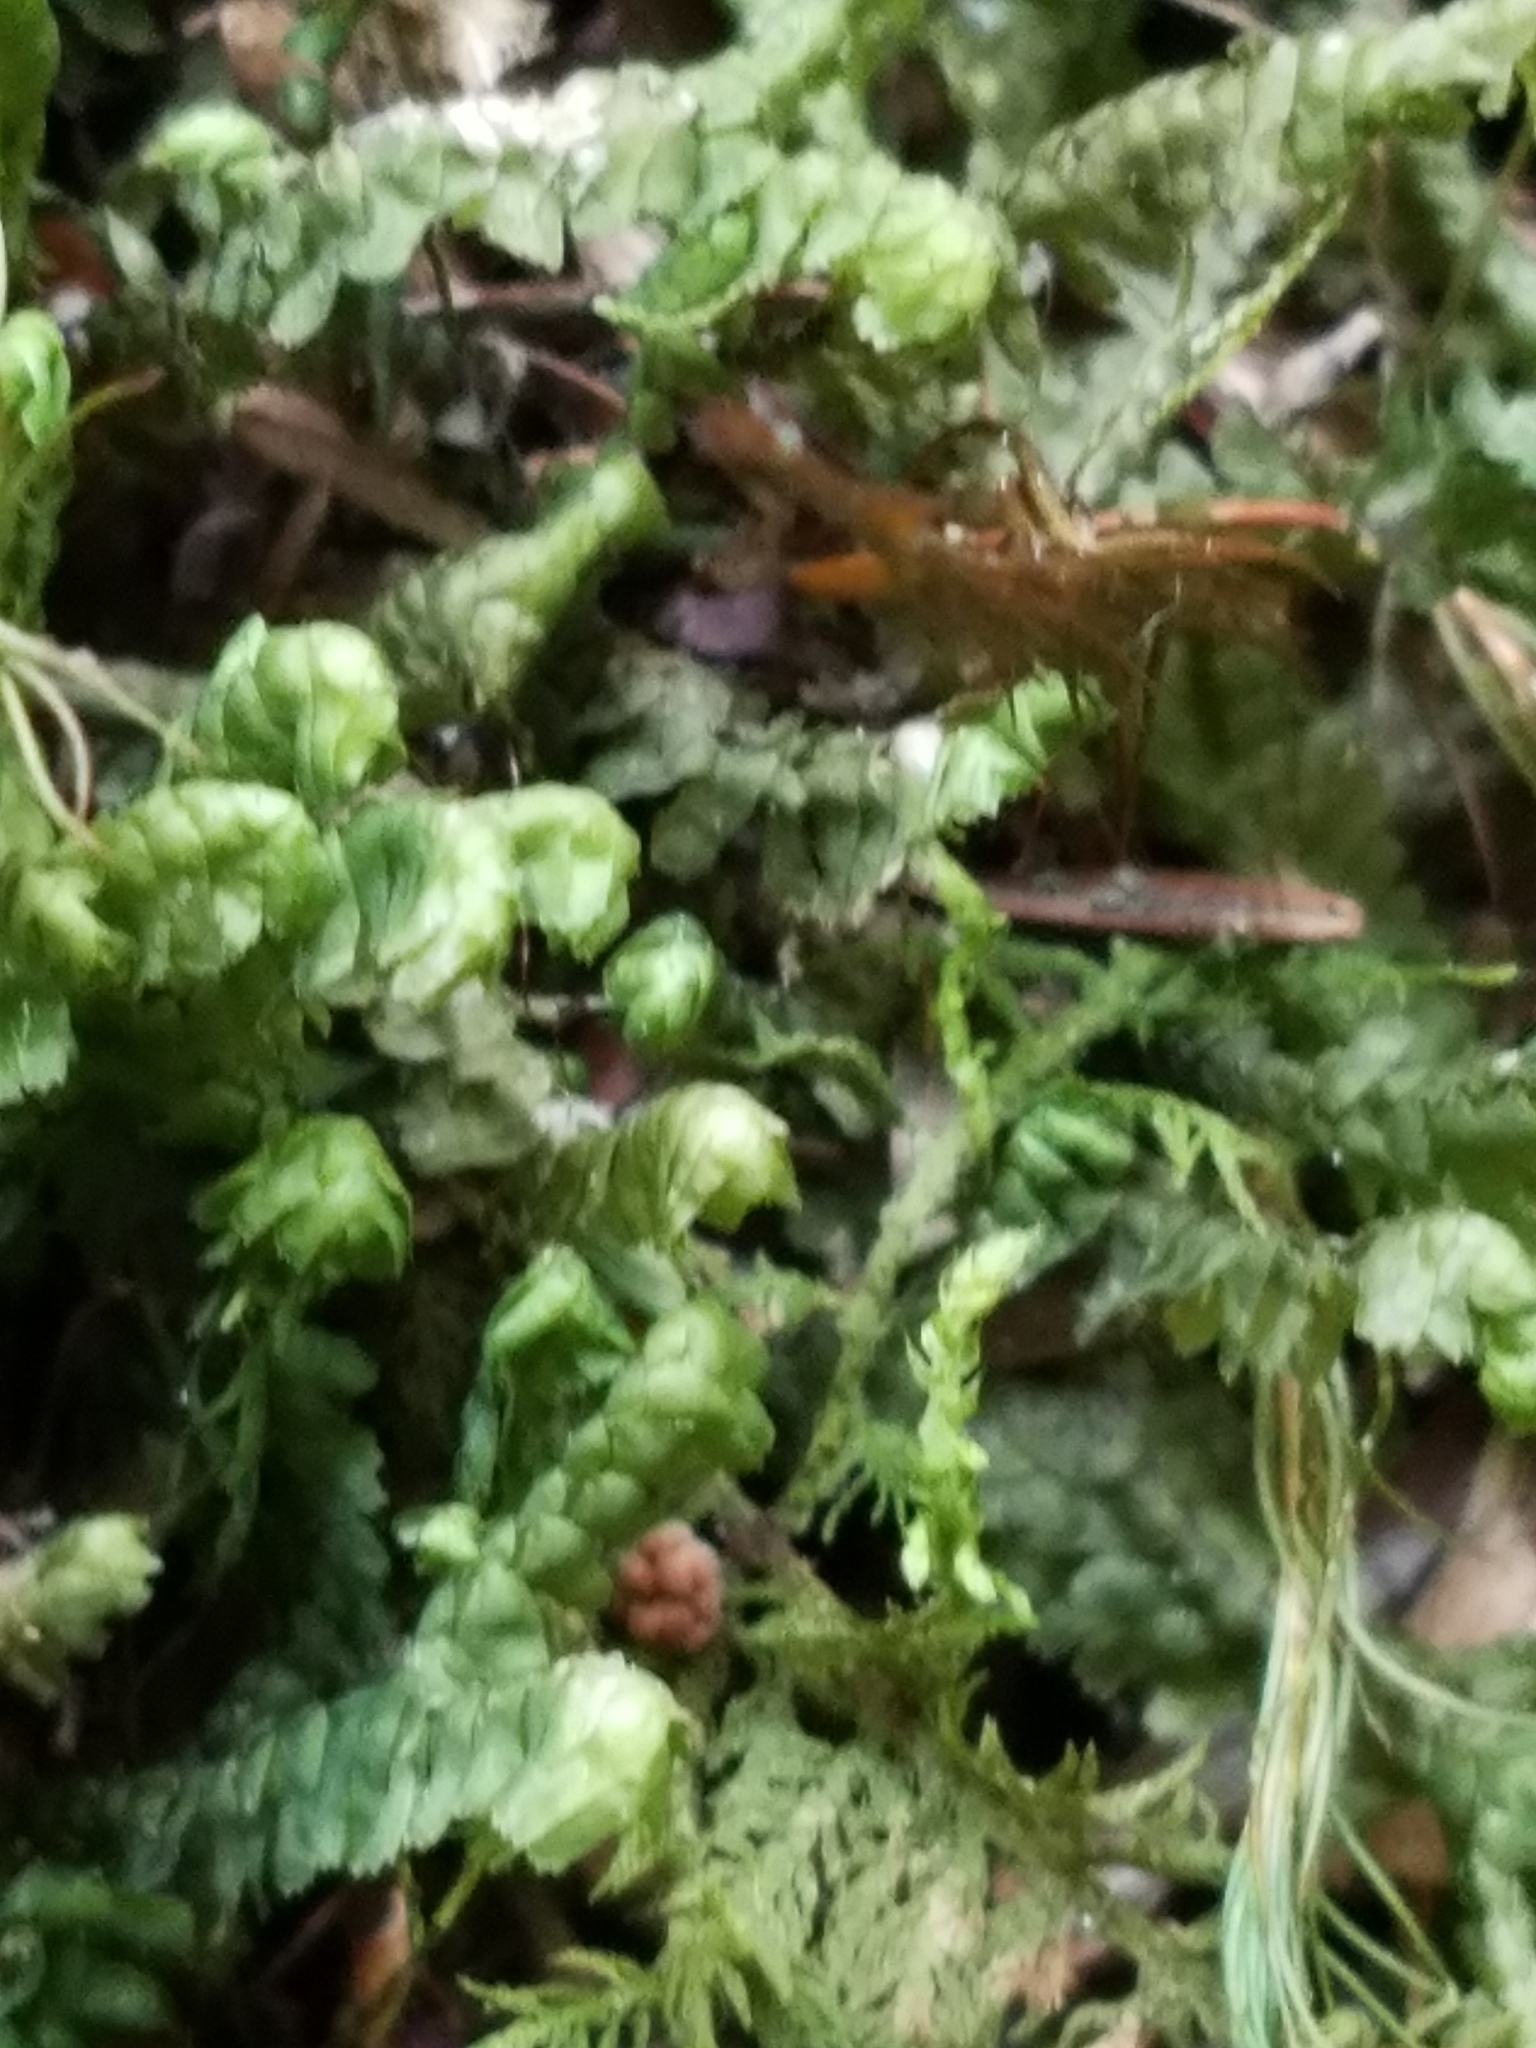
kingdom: Plantae
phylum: Marchantiophyta
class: Jungermanniopsida
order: Jungermanniales
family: Lepidoziaceae
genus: Bazzania
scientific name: Bazzania trilobata
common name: Three-lobed whipwort
